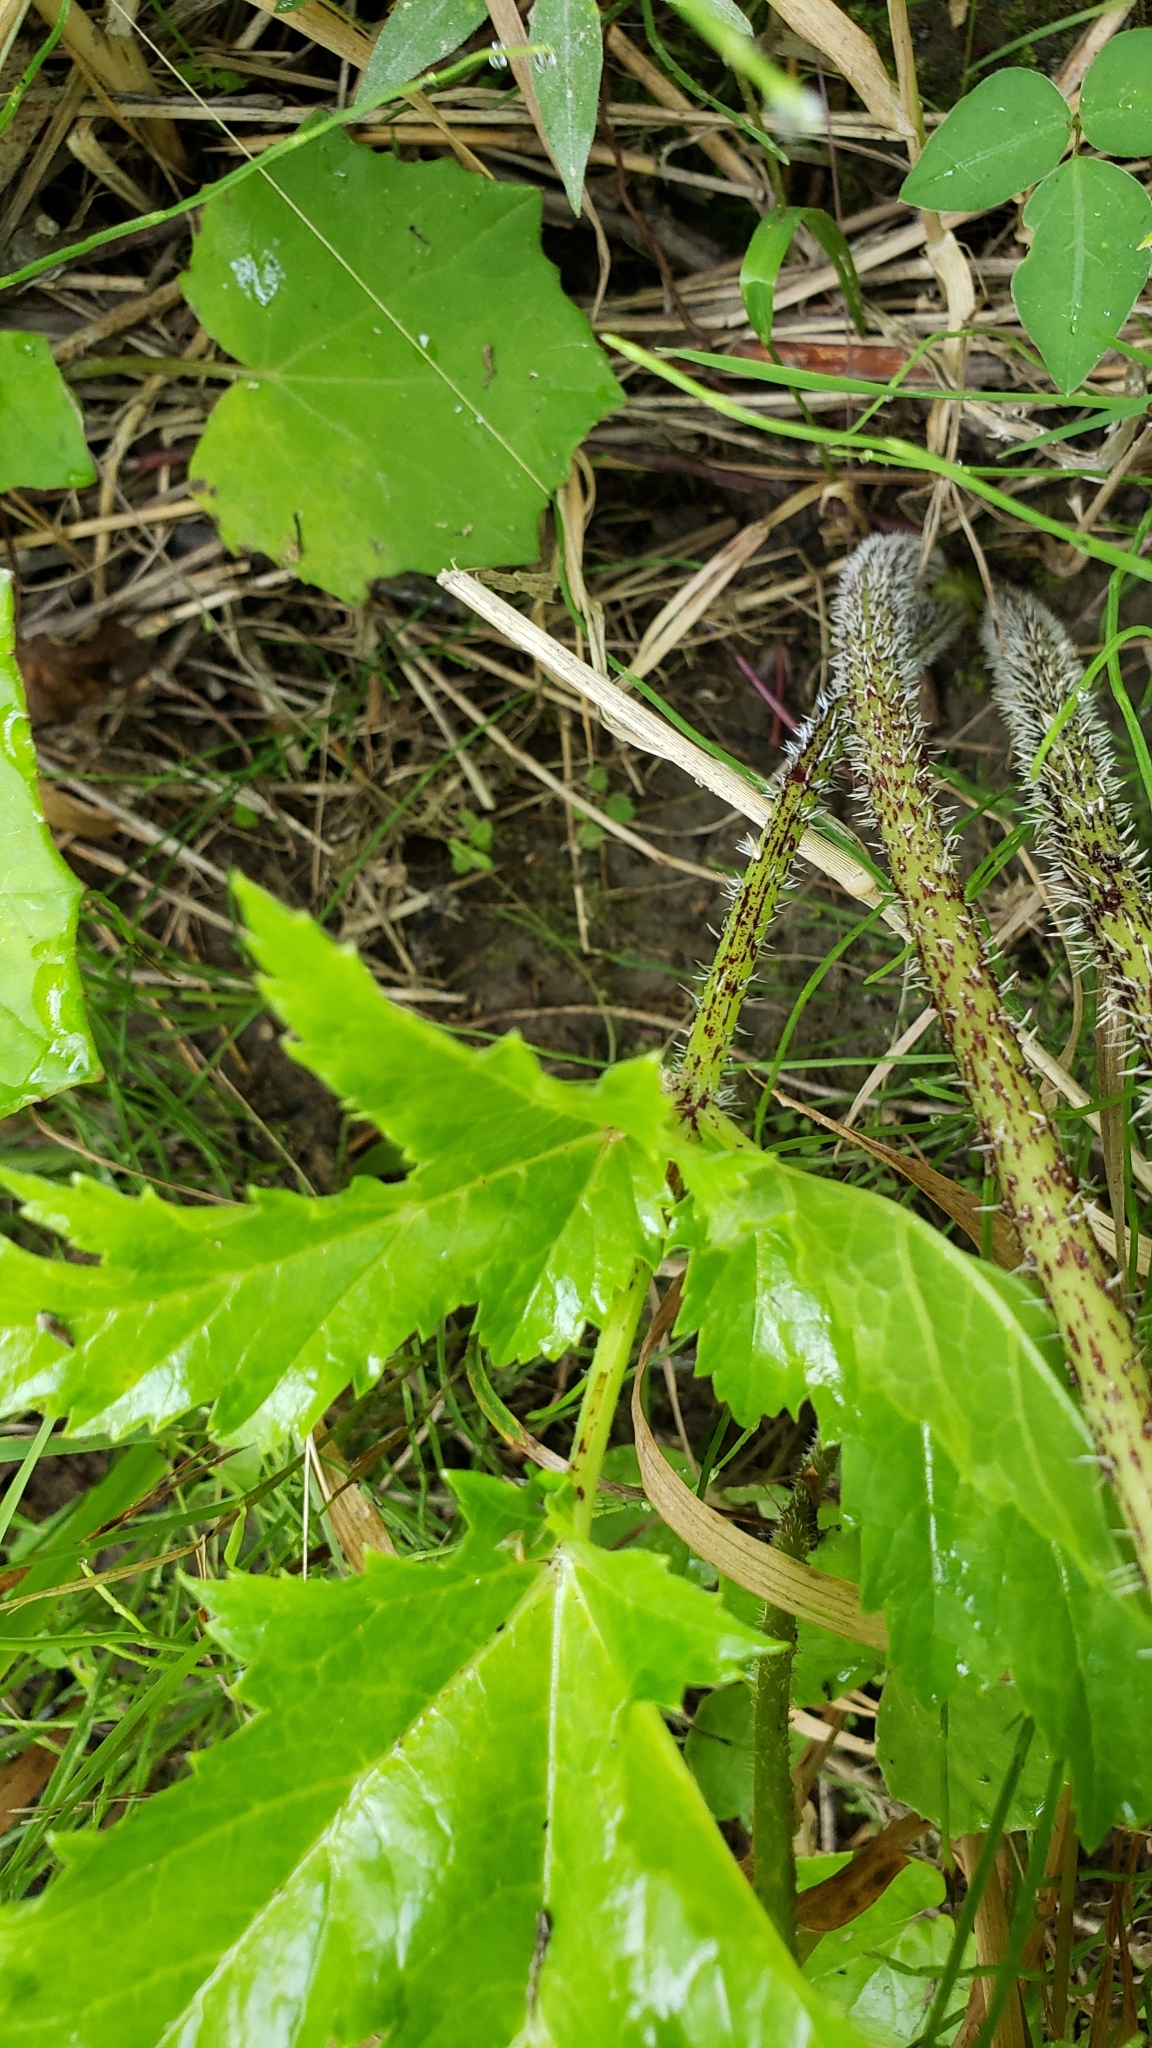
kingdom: Plantae
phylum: Tracheophyta
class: Magnoliopsida
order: Apiales
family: Apiaceae
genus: Heracleum
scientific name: Heracleum mantegazzianum
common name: Giant hogweed
